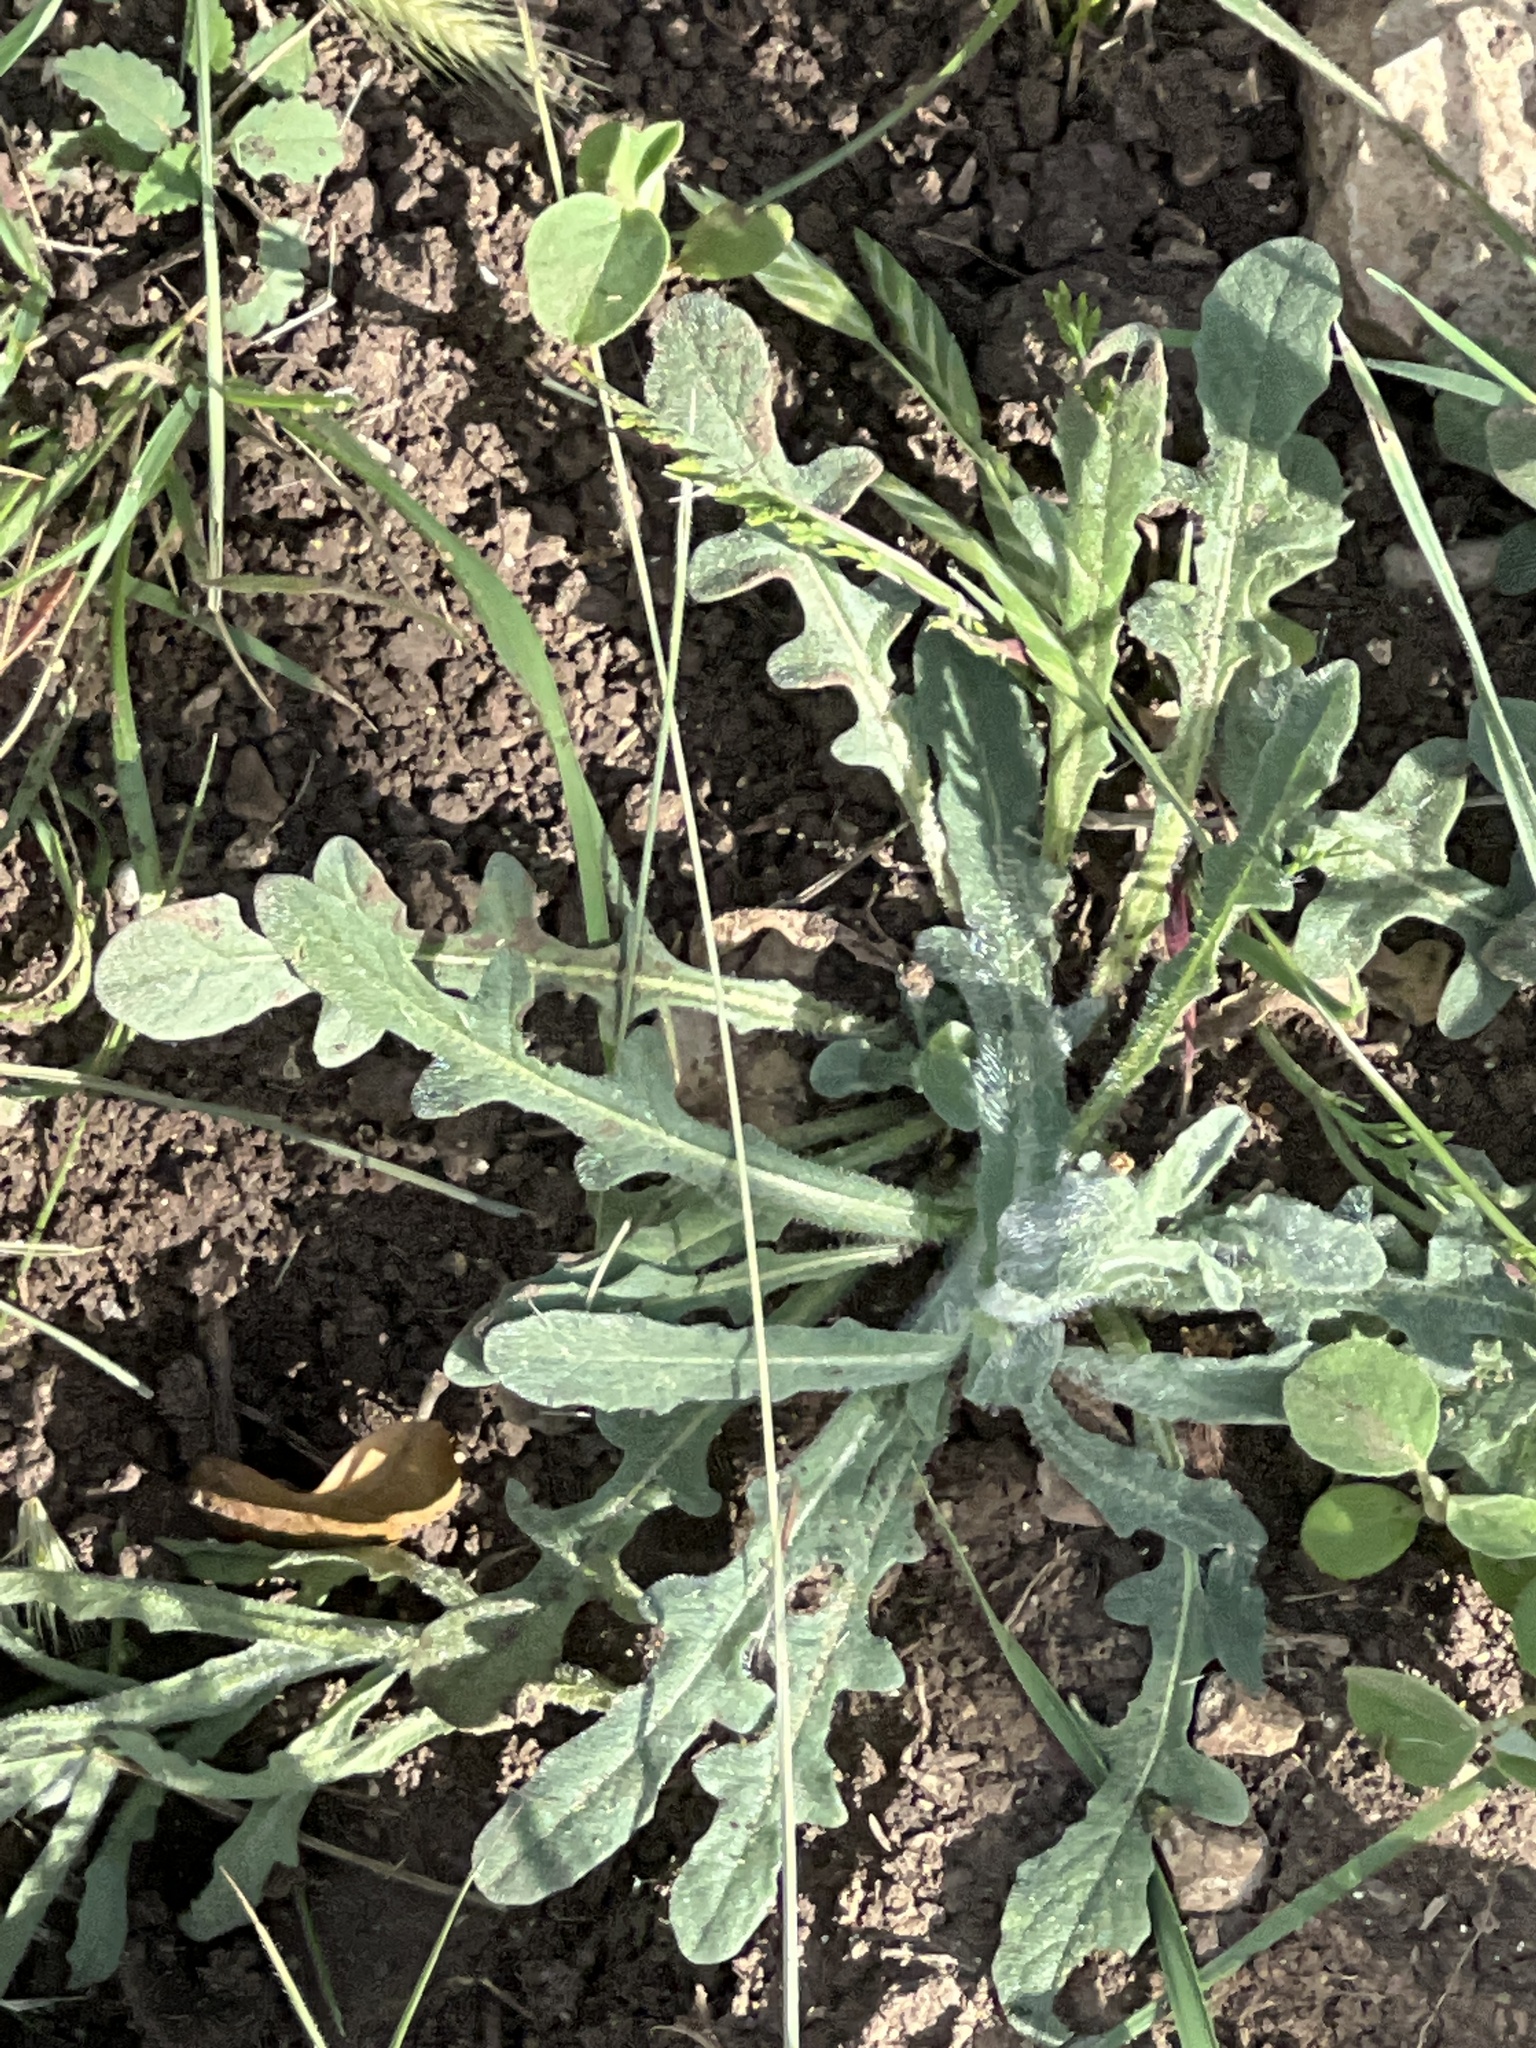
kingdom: Plantae
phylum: Tracheophyta
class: Magnoliopsida
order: Asterales
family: Asteraceae
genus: Centaurea
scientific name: Centaurea melitensis
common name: Maltese star-thistle
